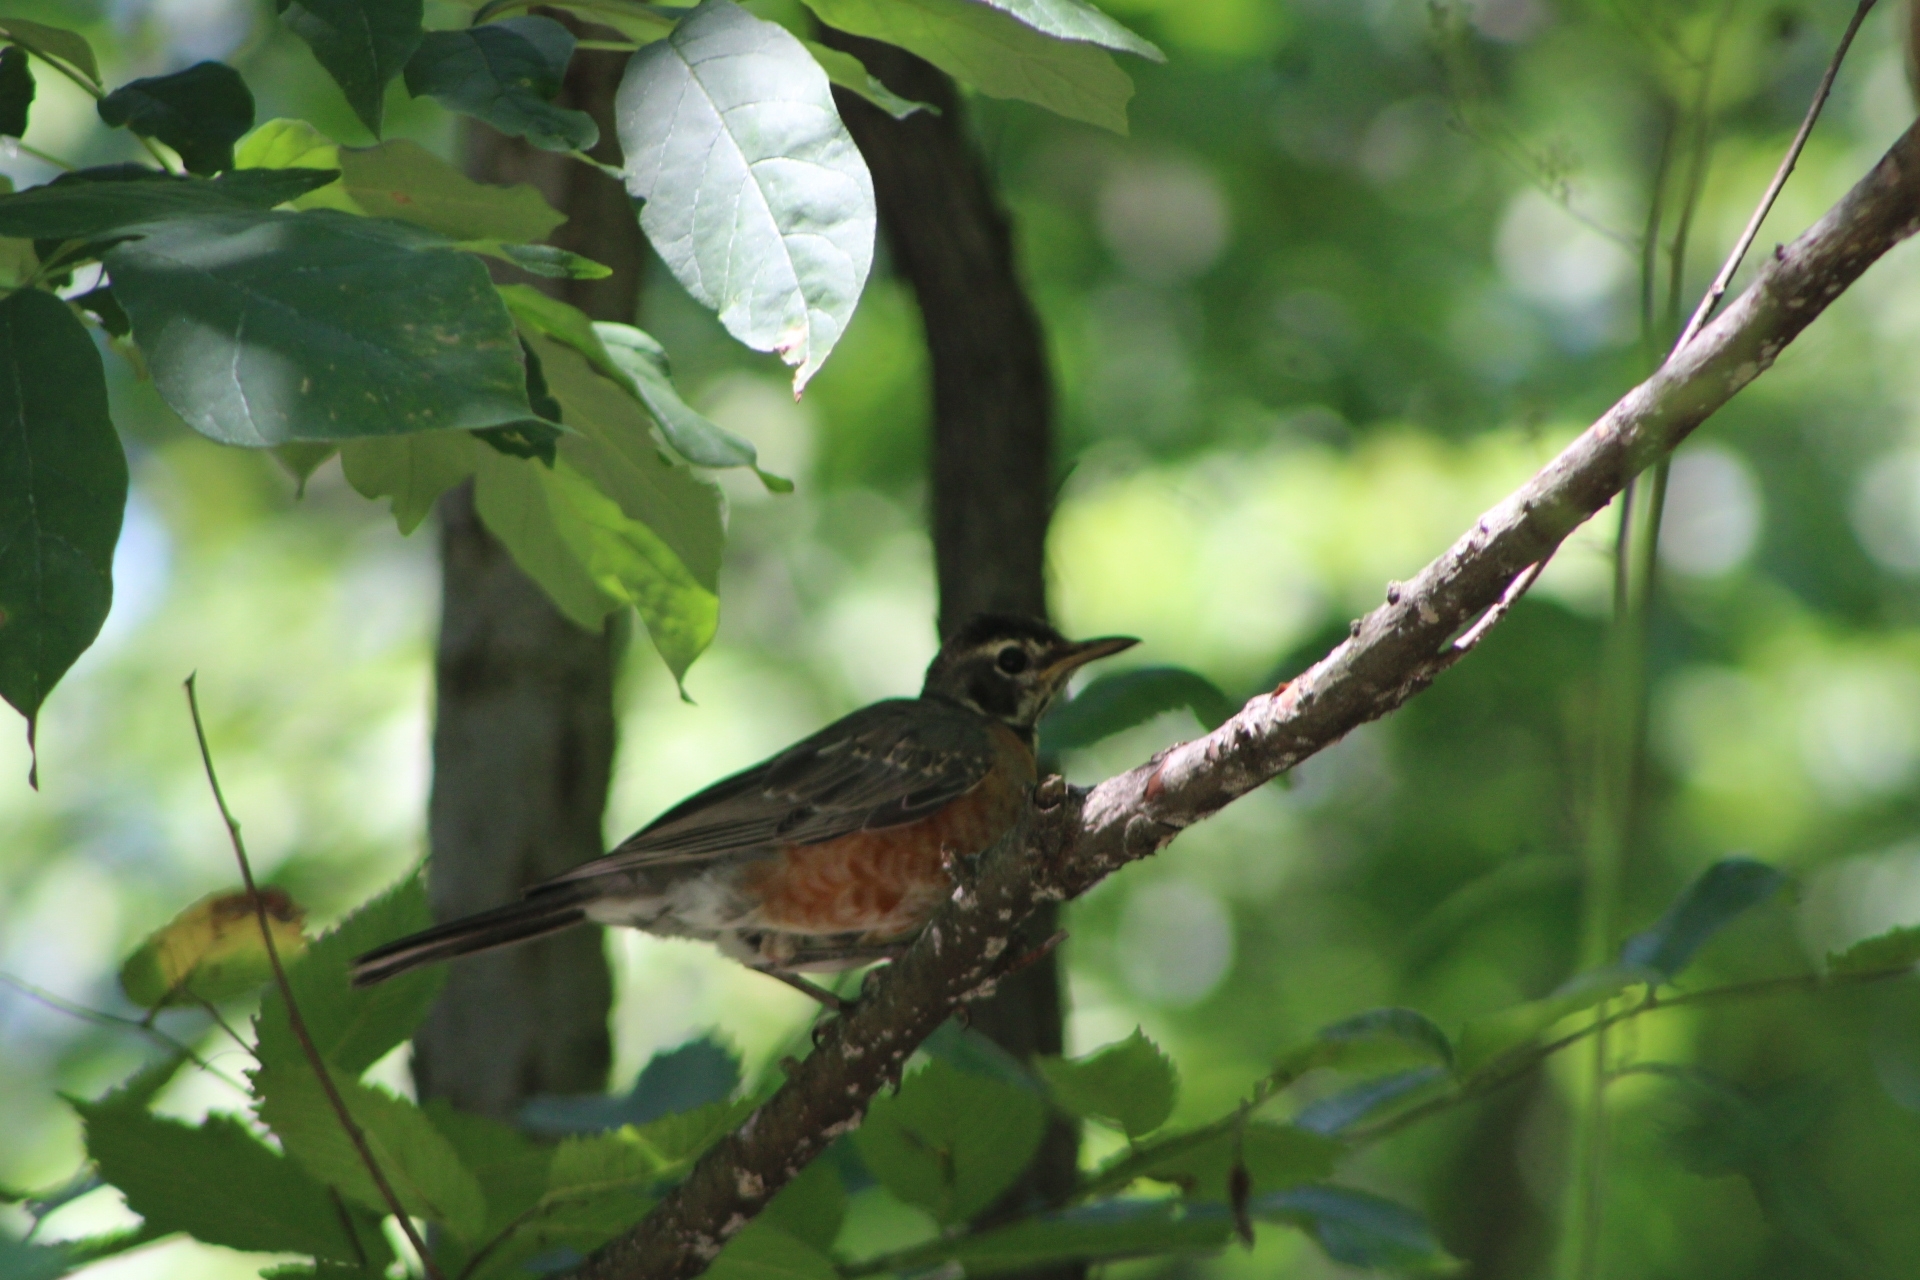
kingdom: Animalia
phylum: Chordata
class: Aves
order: Passeriformes
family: Turdidae
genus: Turdus
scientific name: Turdus migratorius
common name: American robin
